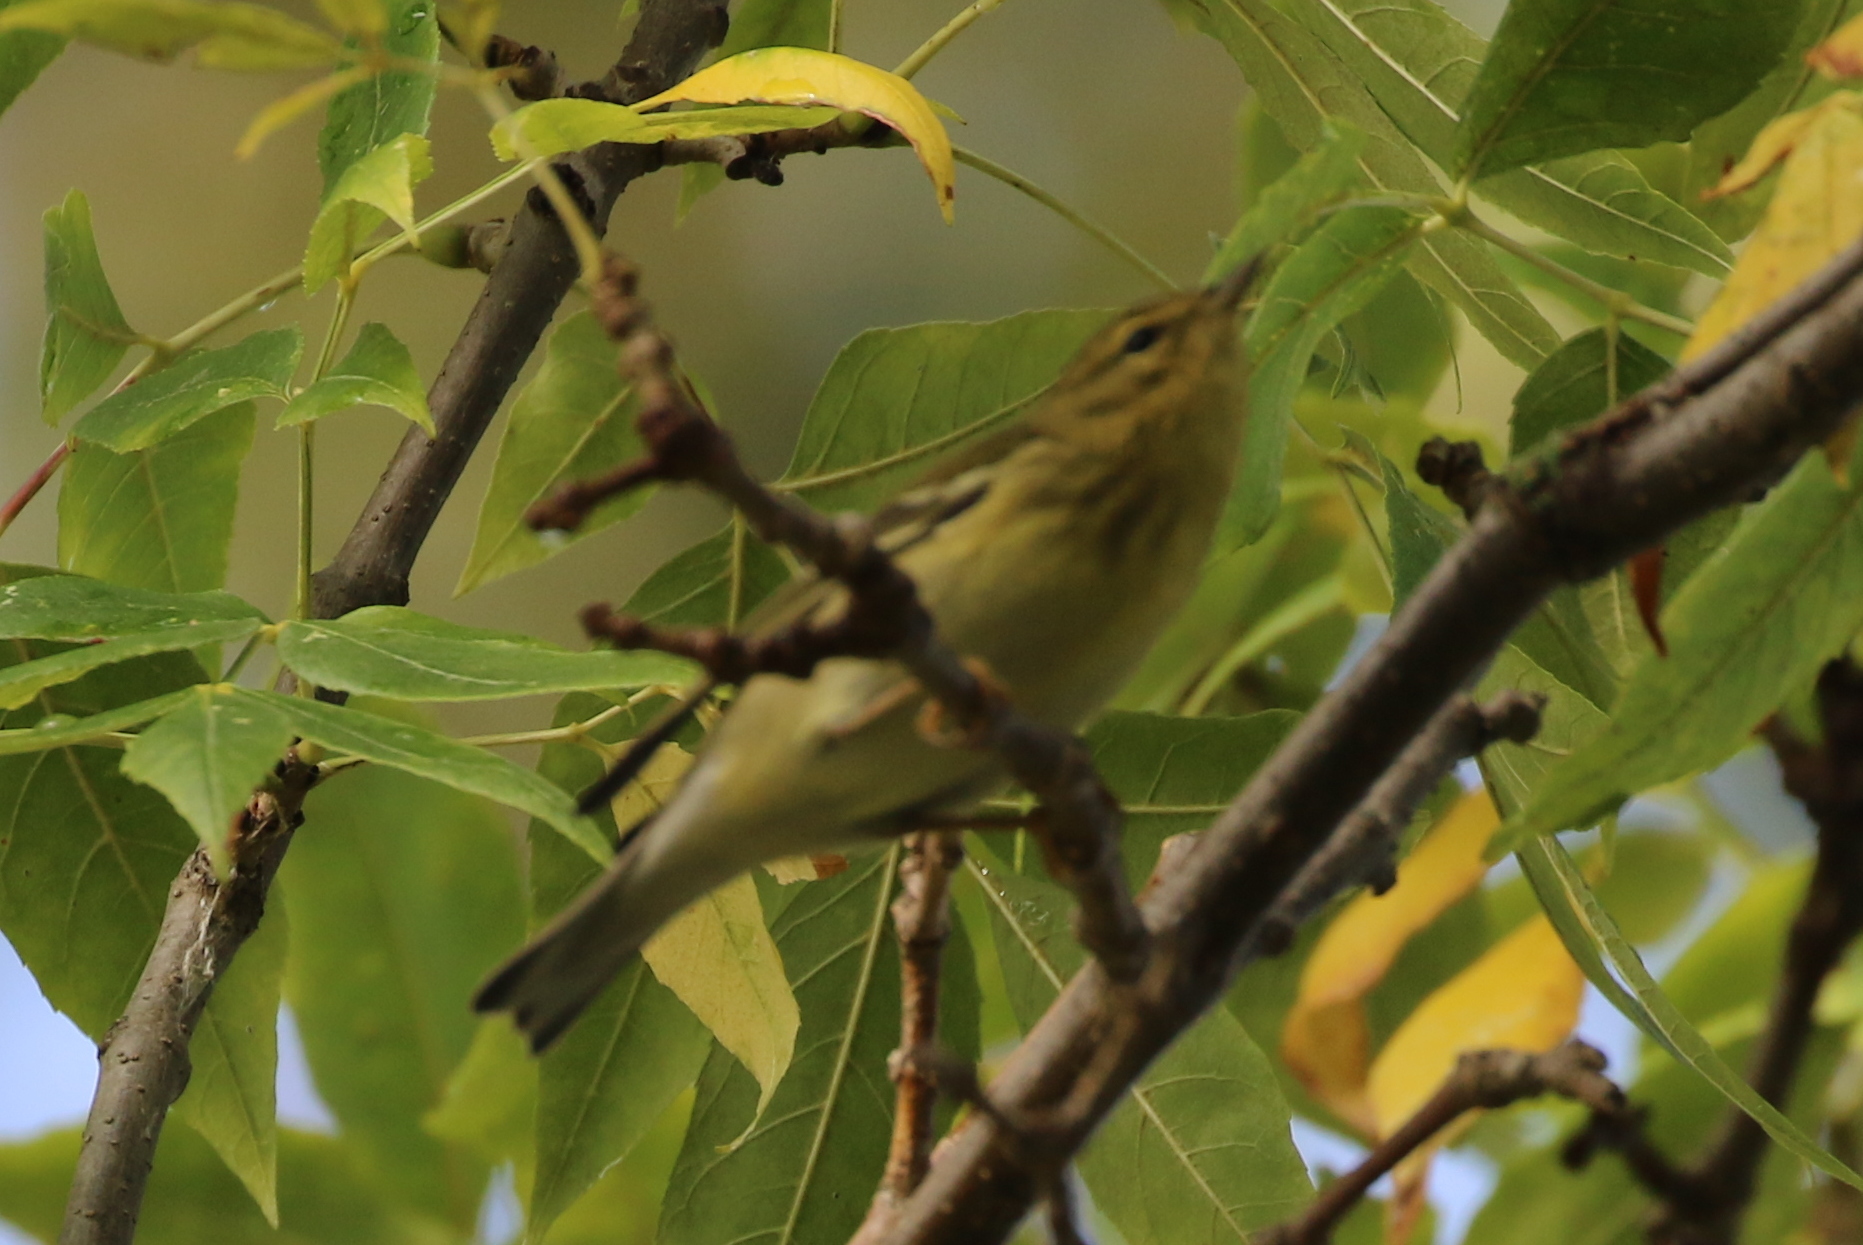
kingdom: Animalia
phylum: Chordata
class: Aves
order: Passeriformes
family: Parulidae
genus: Setophaga
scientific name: Setophaga striata
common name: Blackpoll warbler
